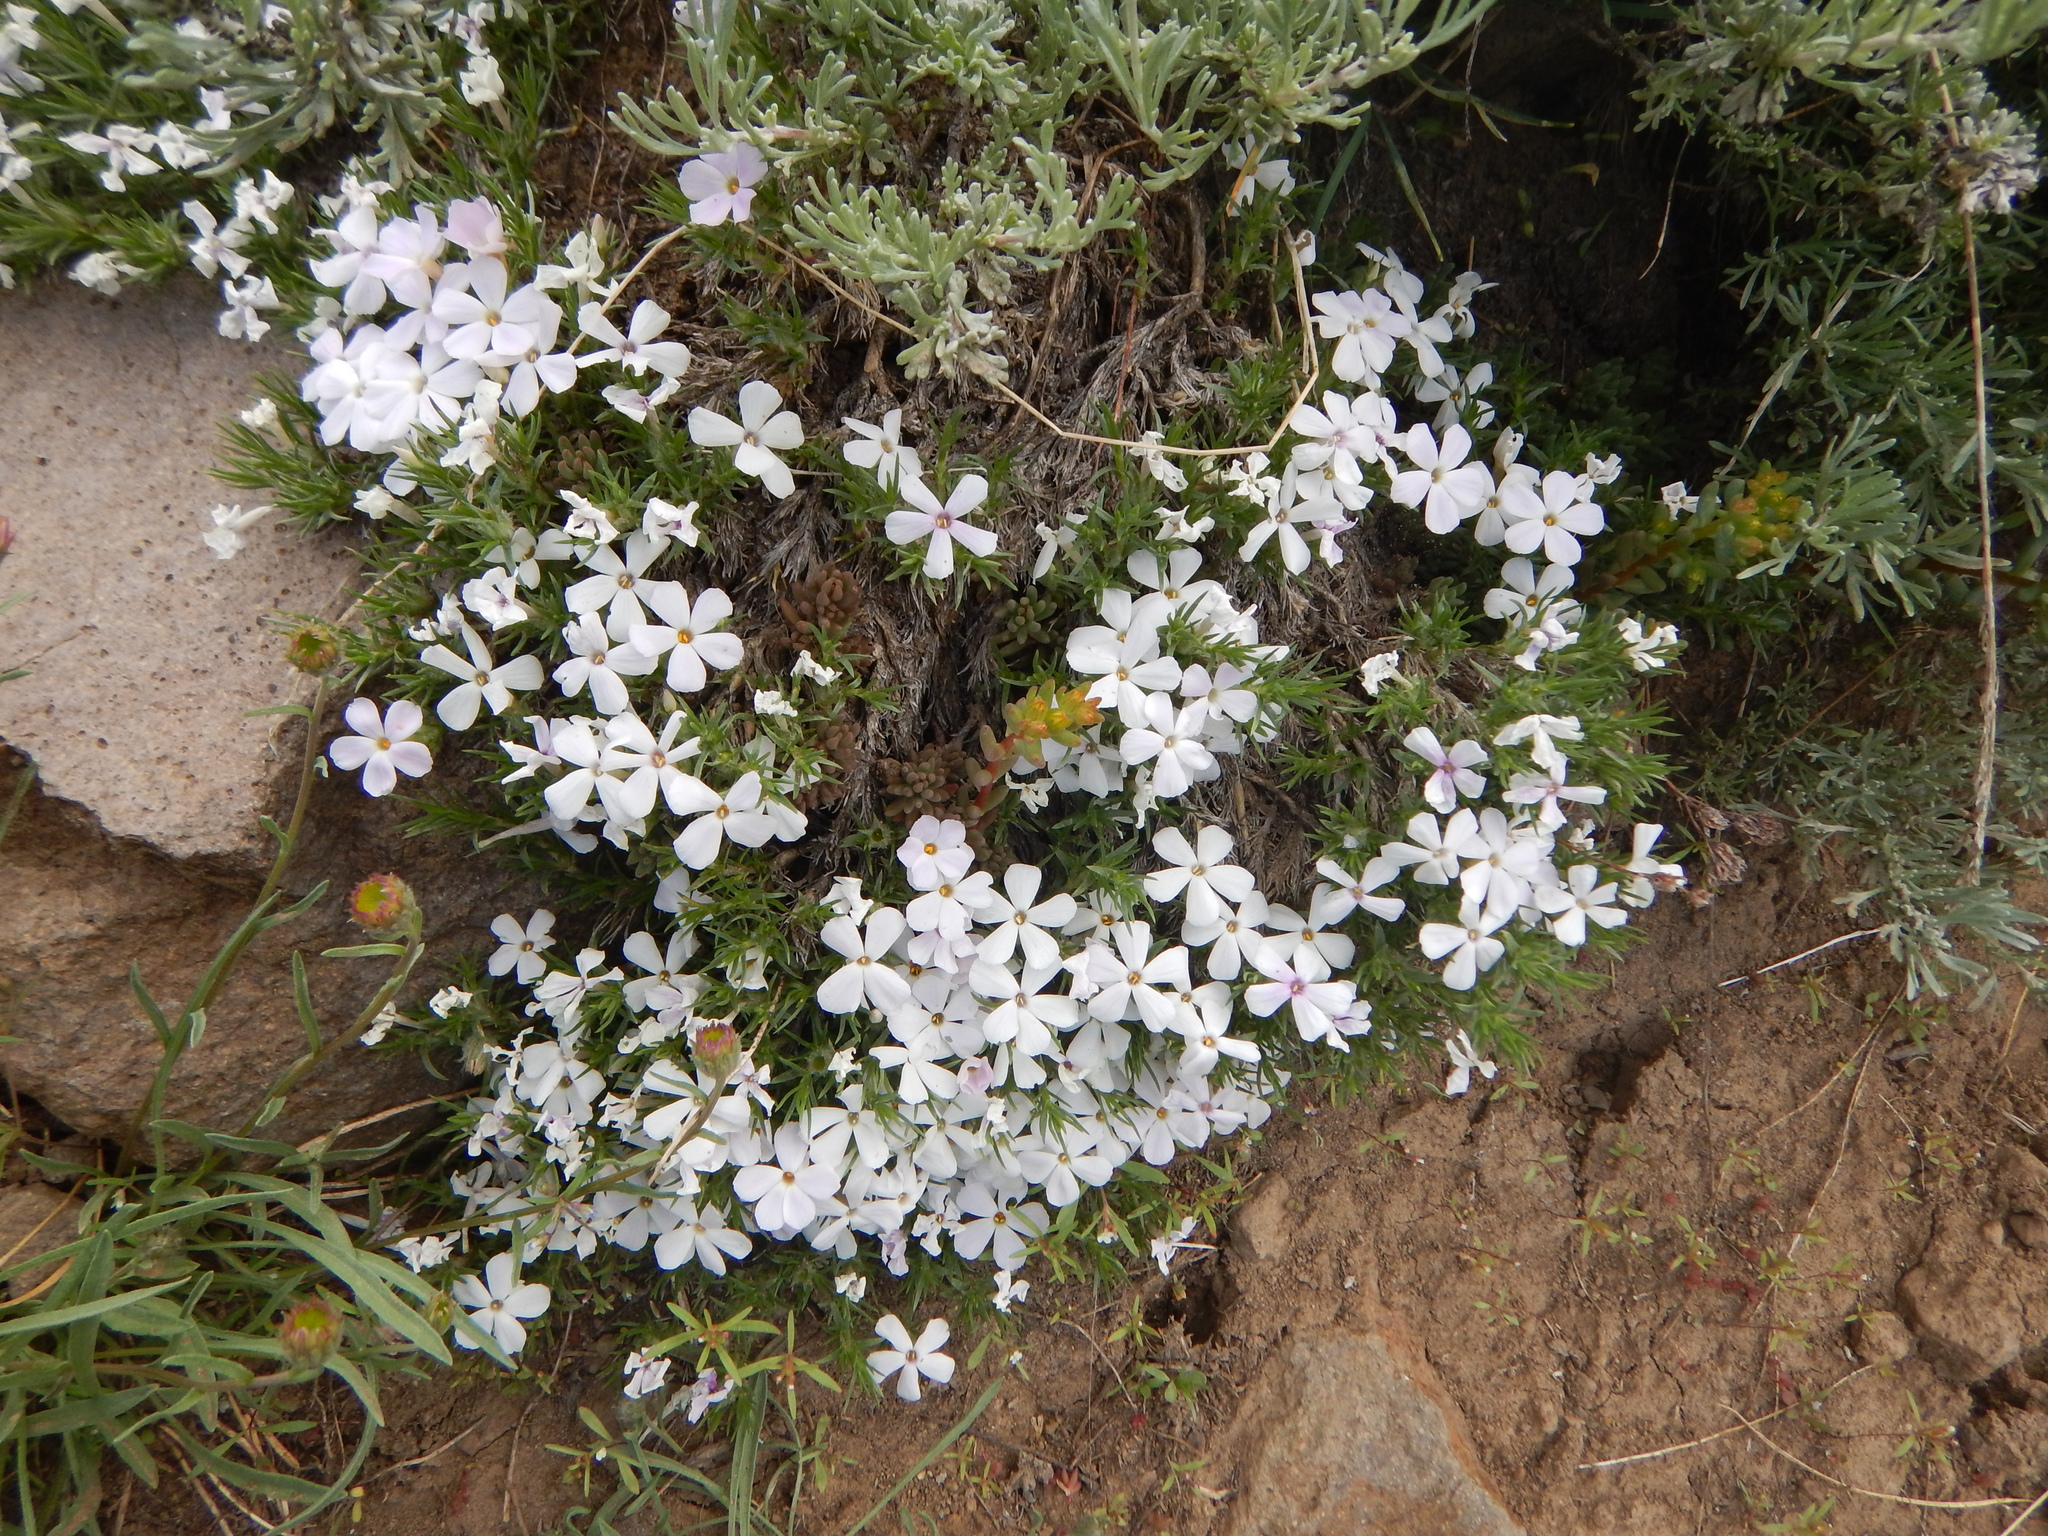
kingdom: Plantae
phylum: Tracheophyta
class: Magnoliopsida
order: Ericales
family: Polemoniaceae
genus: Phlox
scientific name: Phlox diffusa
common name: Mat phlox
